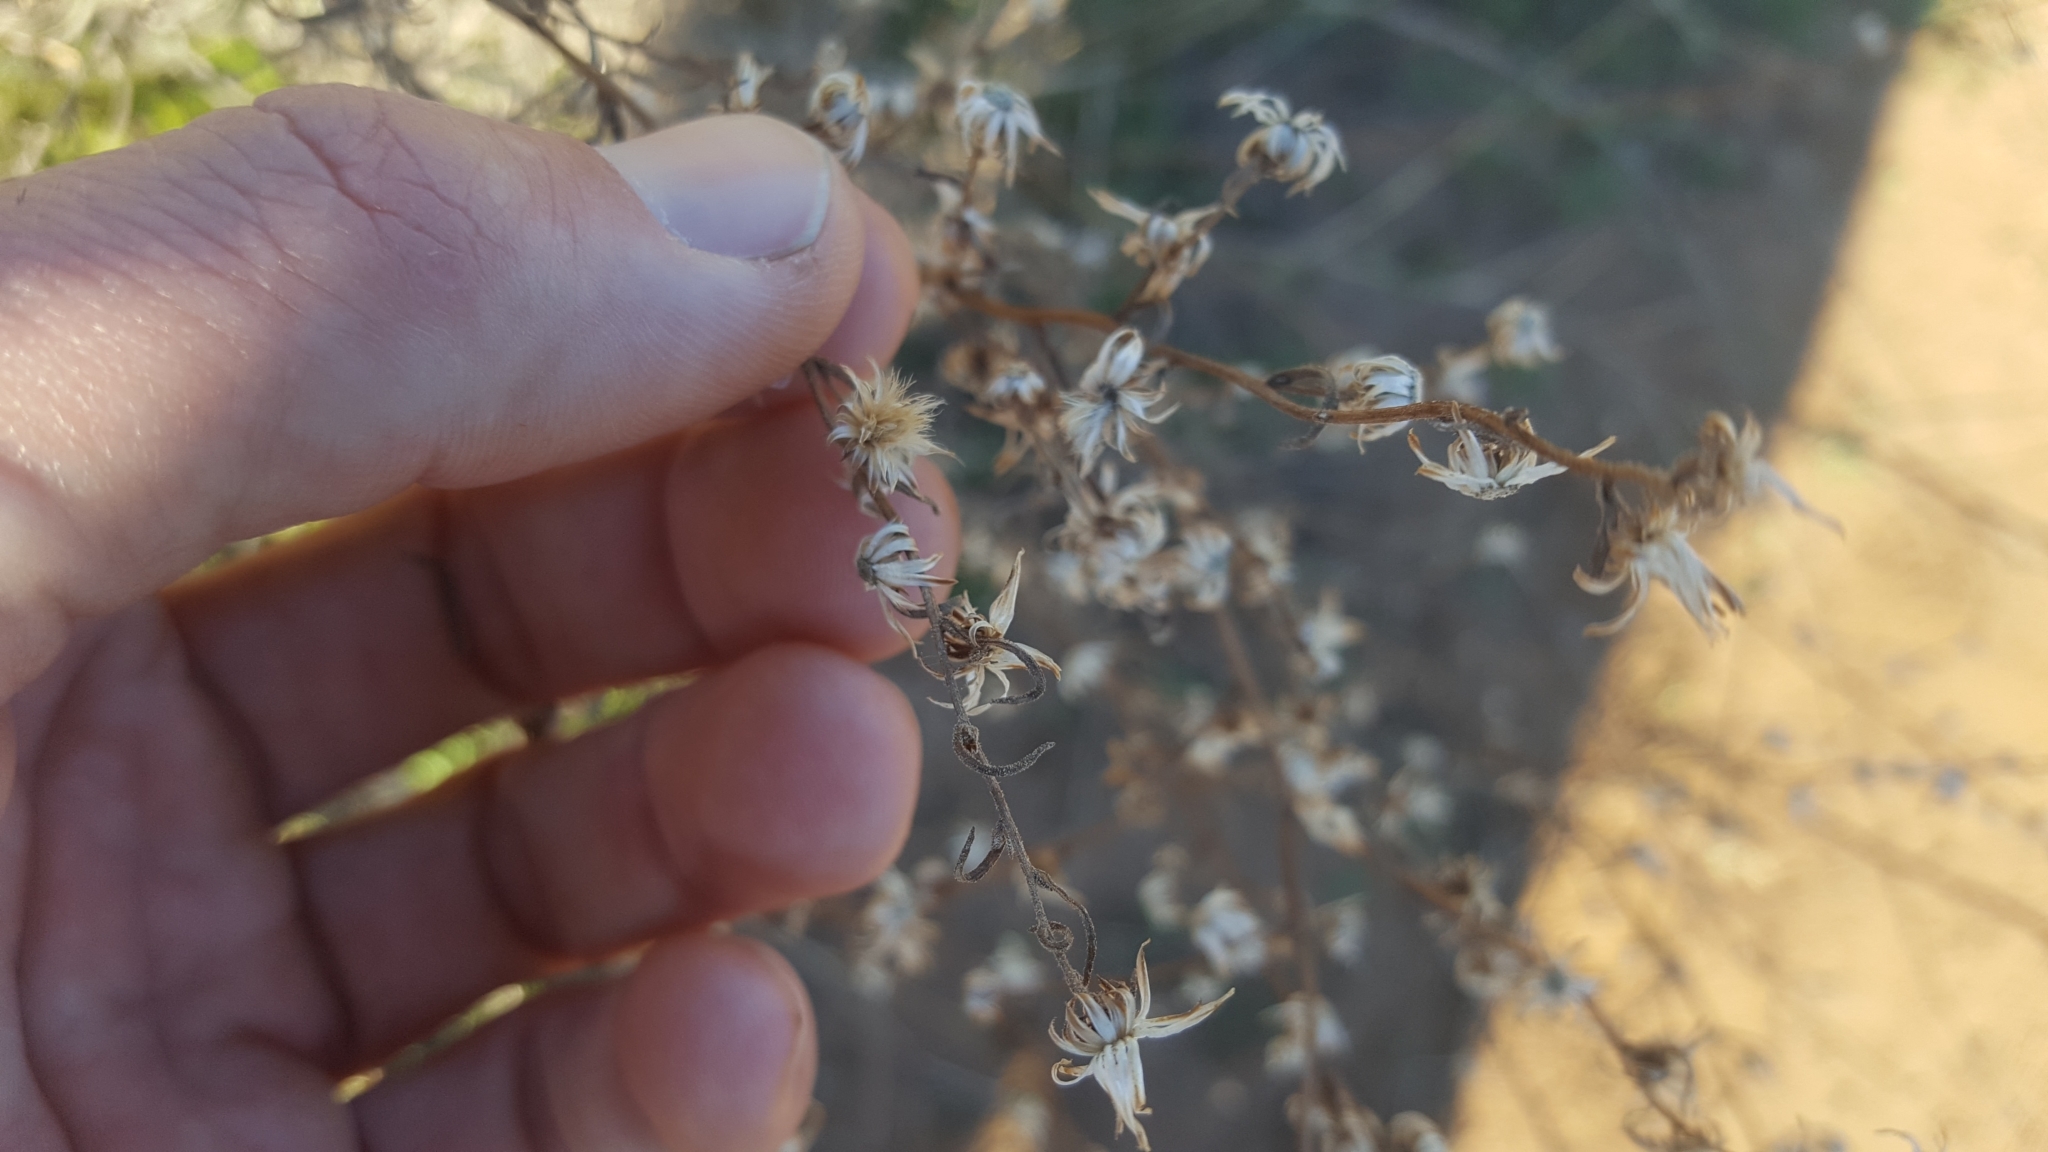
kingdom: Plantae
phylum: Tracheophyta
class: Magnoliopsida
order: Asterales
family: Asteraceae
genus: Dittrichia
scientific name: Dittrichia graveolens
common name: Stinking fleabane
